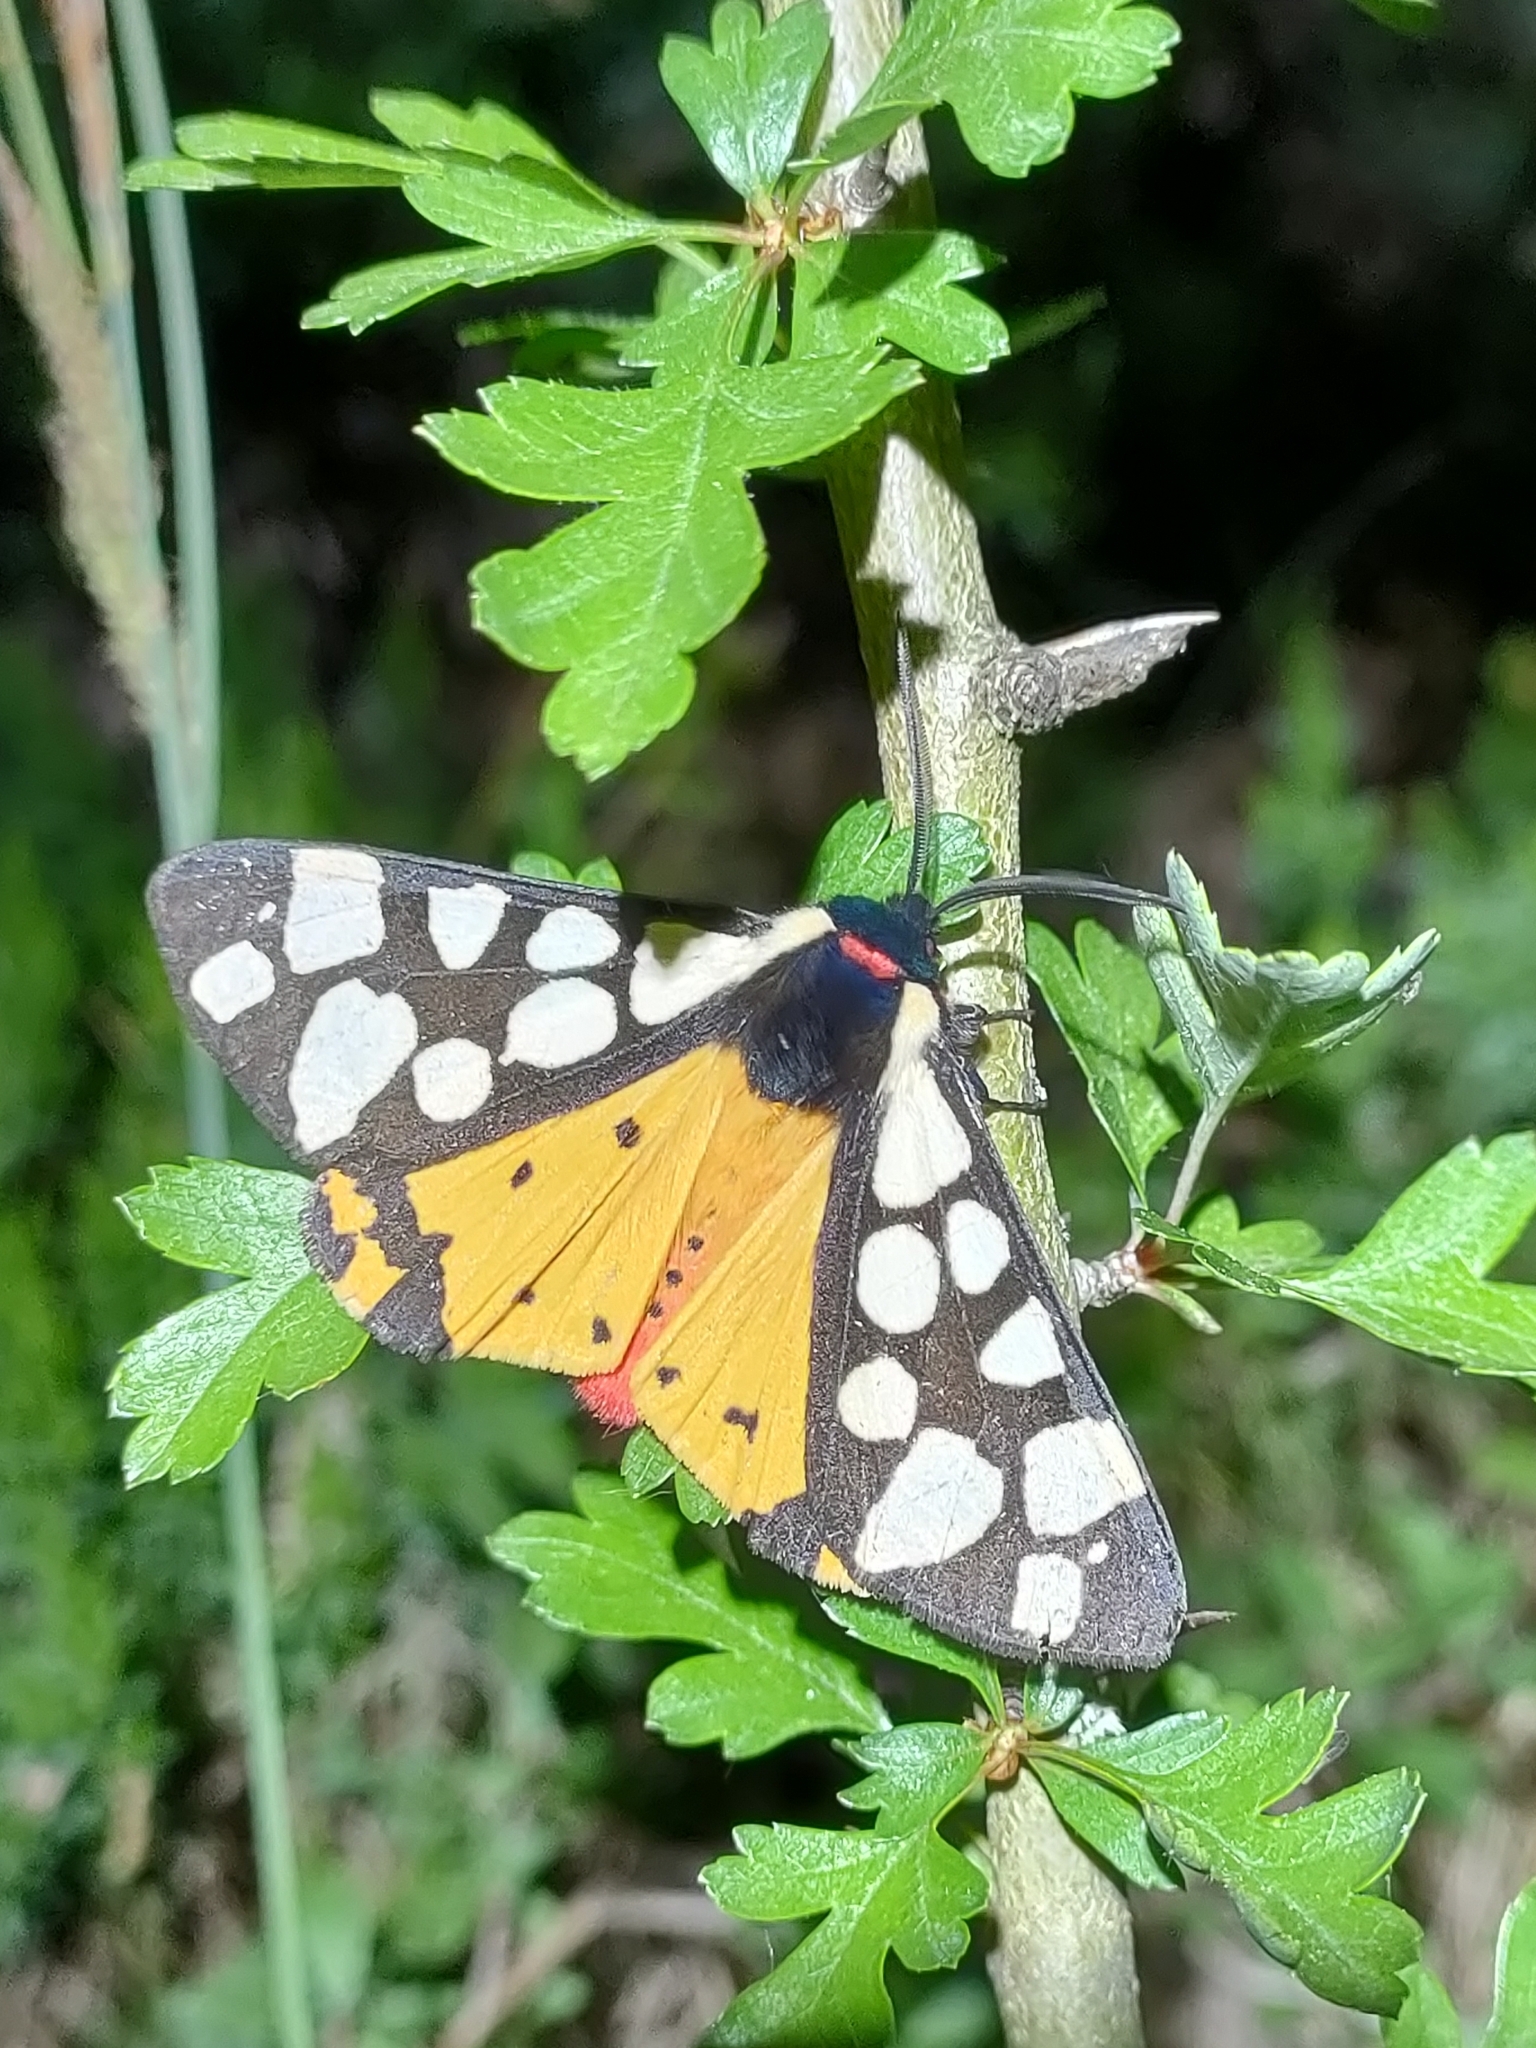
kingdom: Animalia
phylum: Arthropoda
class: Insecta
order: Lepidoptera
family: Erebidae
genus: Epicallia
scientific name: Epicallia villica
